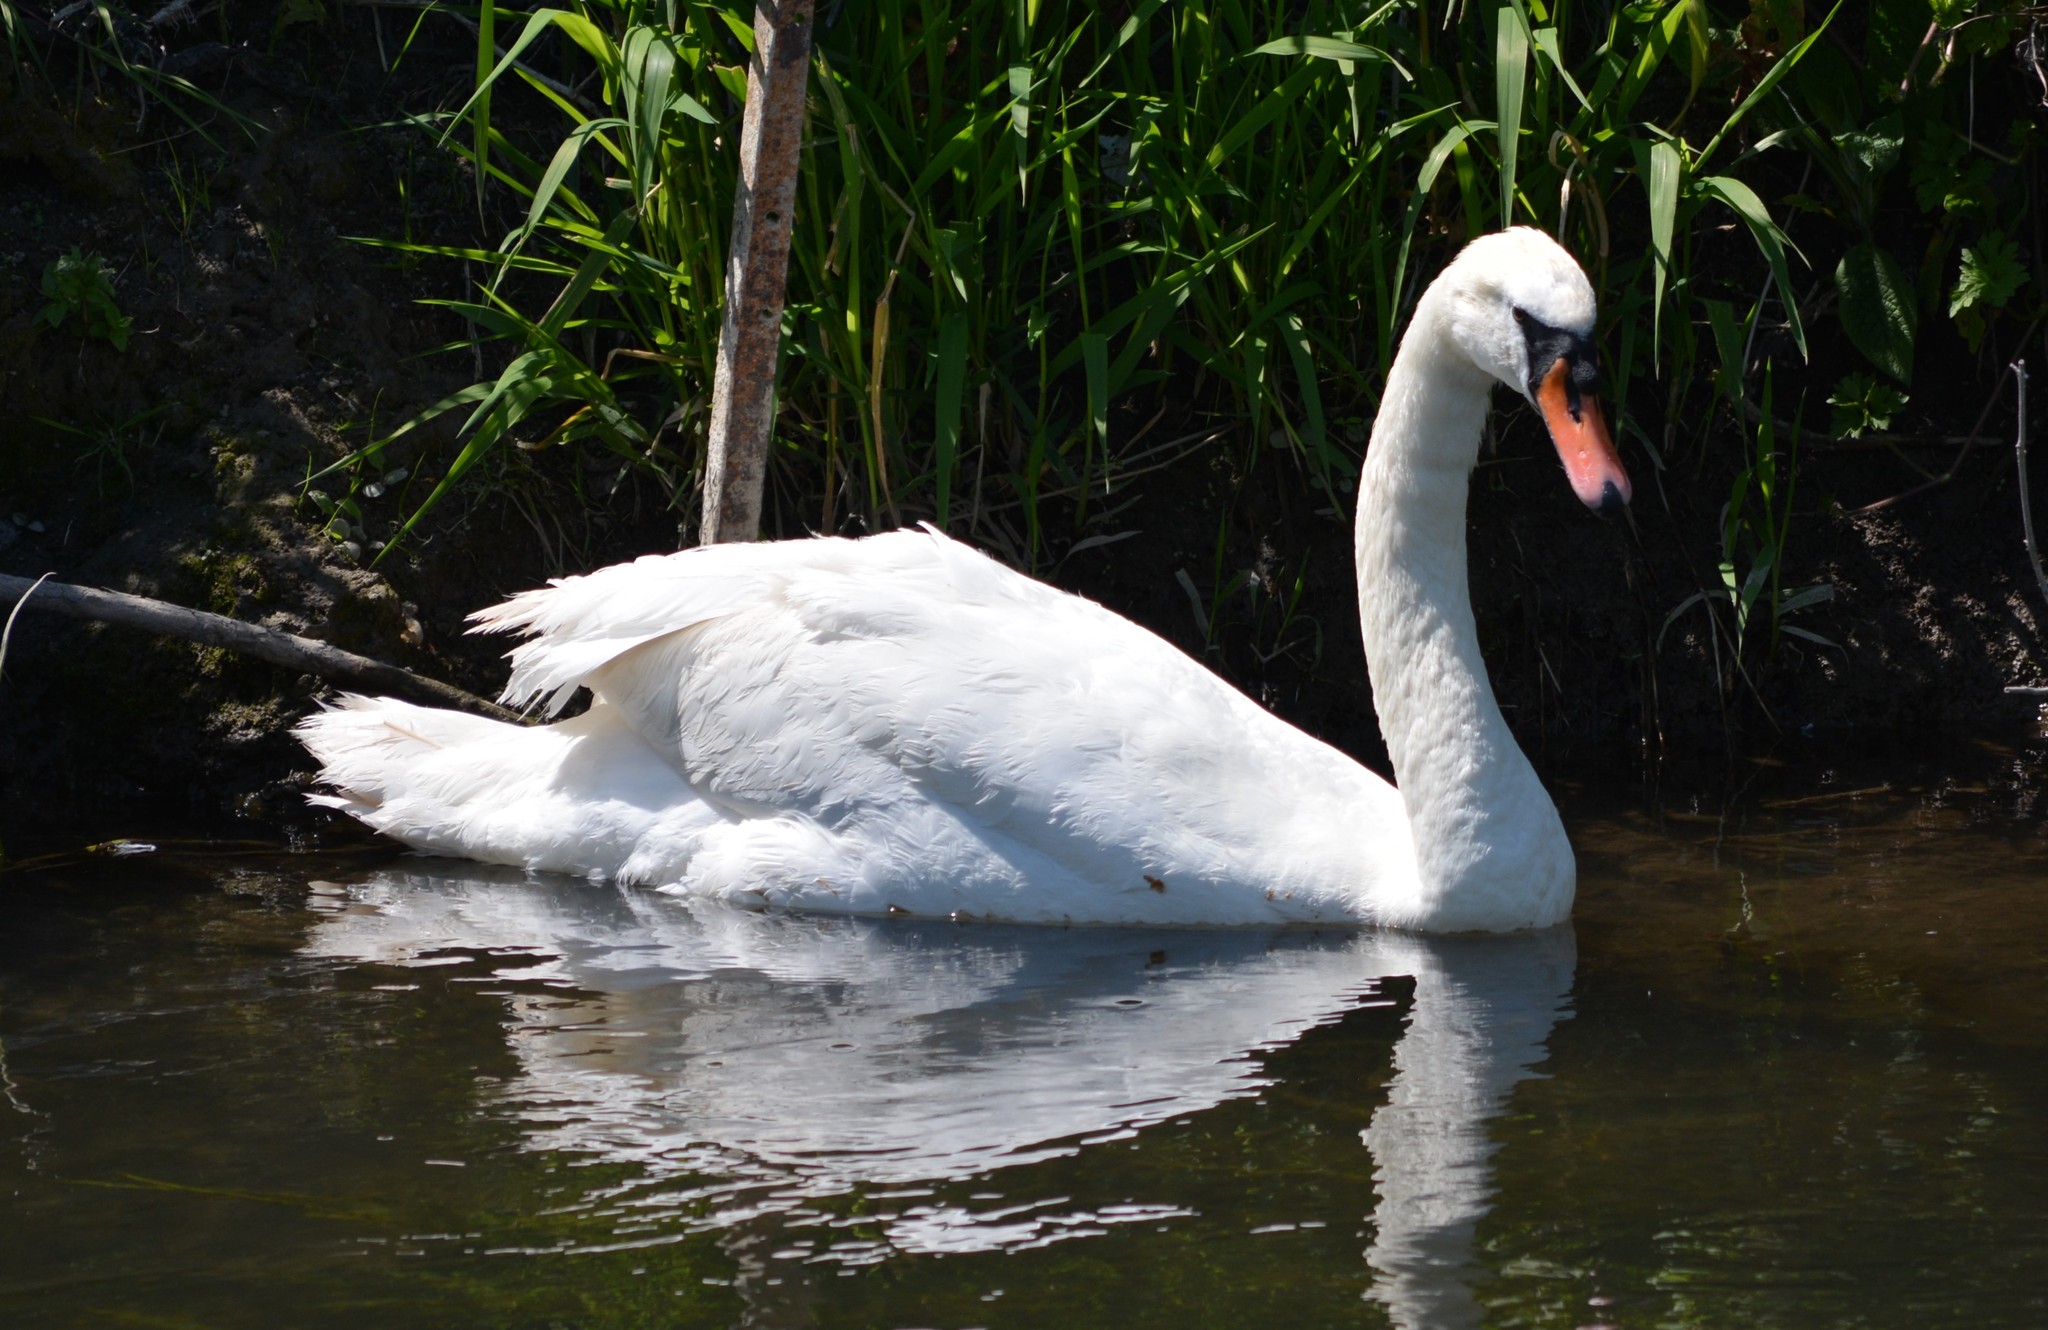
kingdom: Animalia
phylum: Chordata
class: Aves
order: Anseriformes
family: Anatidae
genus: Cygnus
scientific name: Cygnus olor
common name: Mute swan
